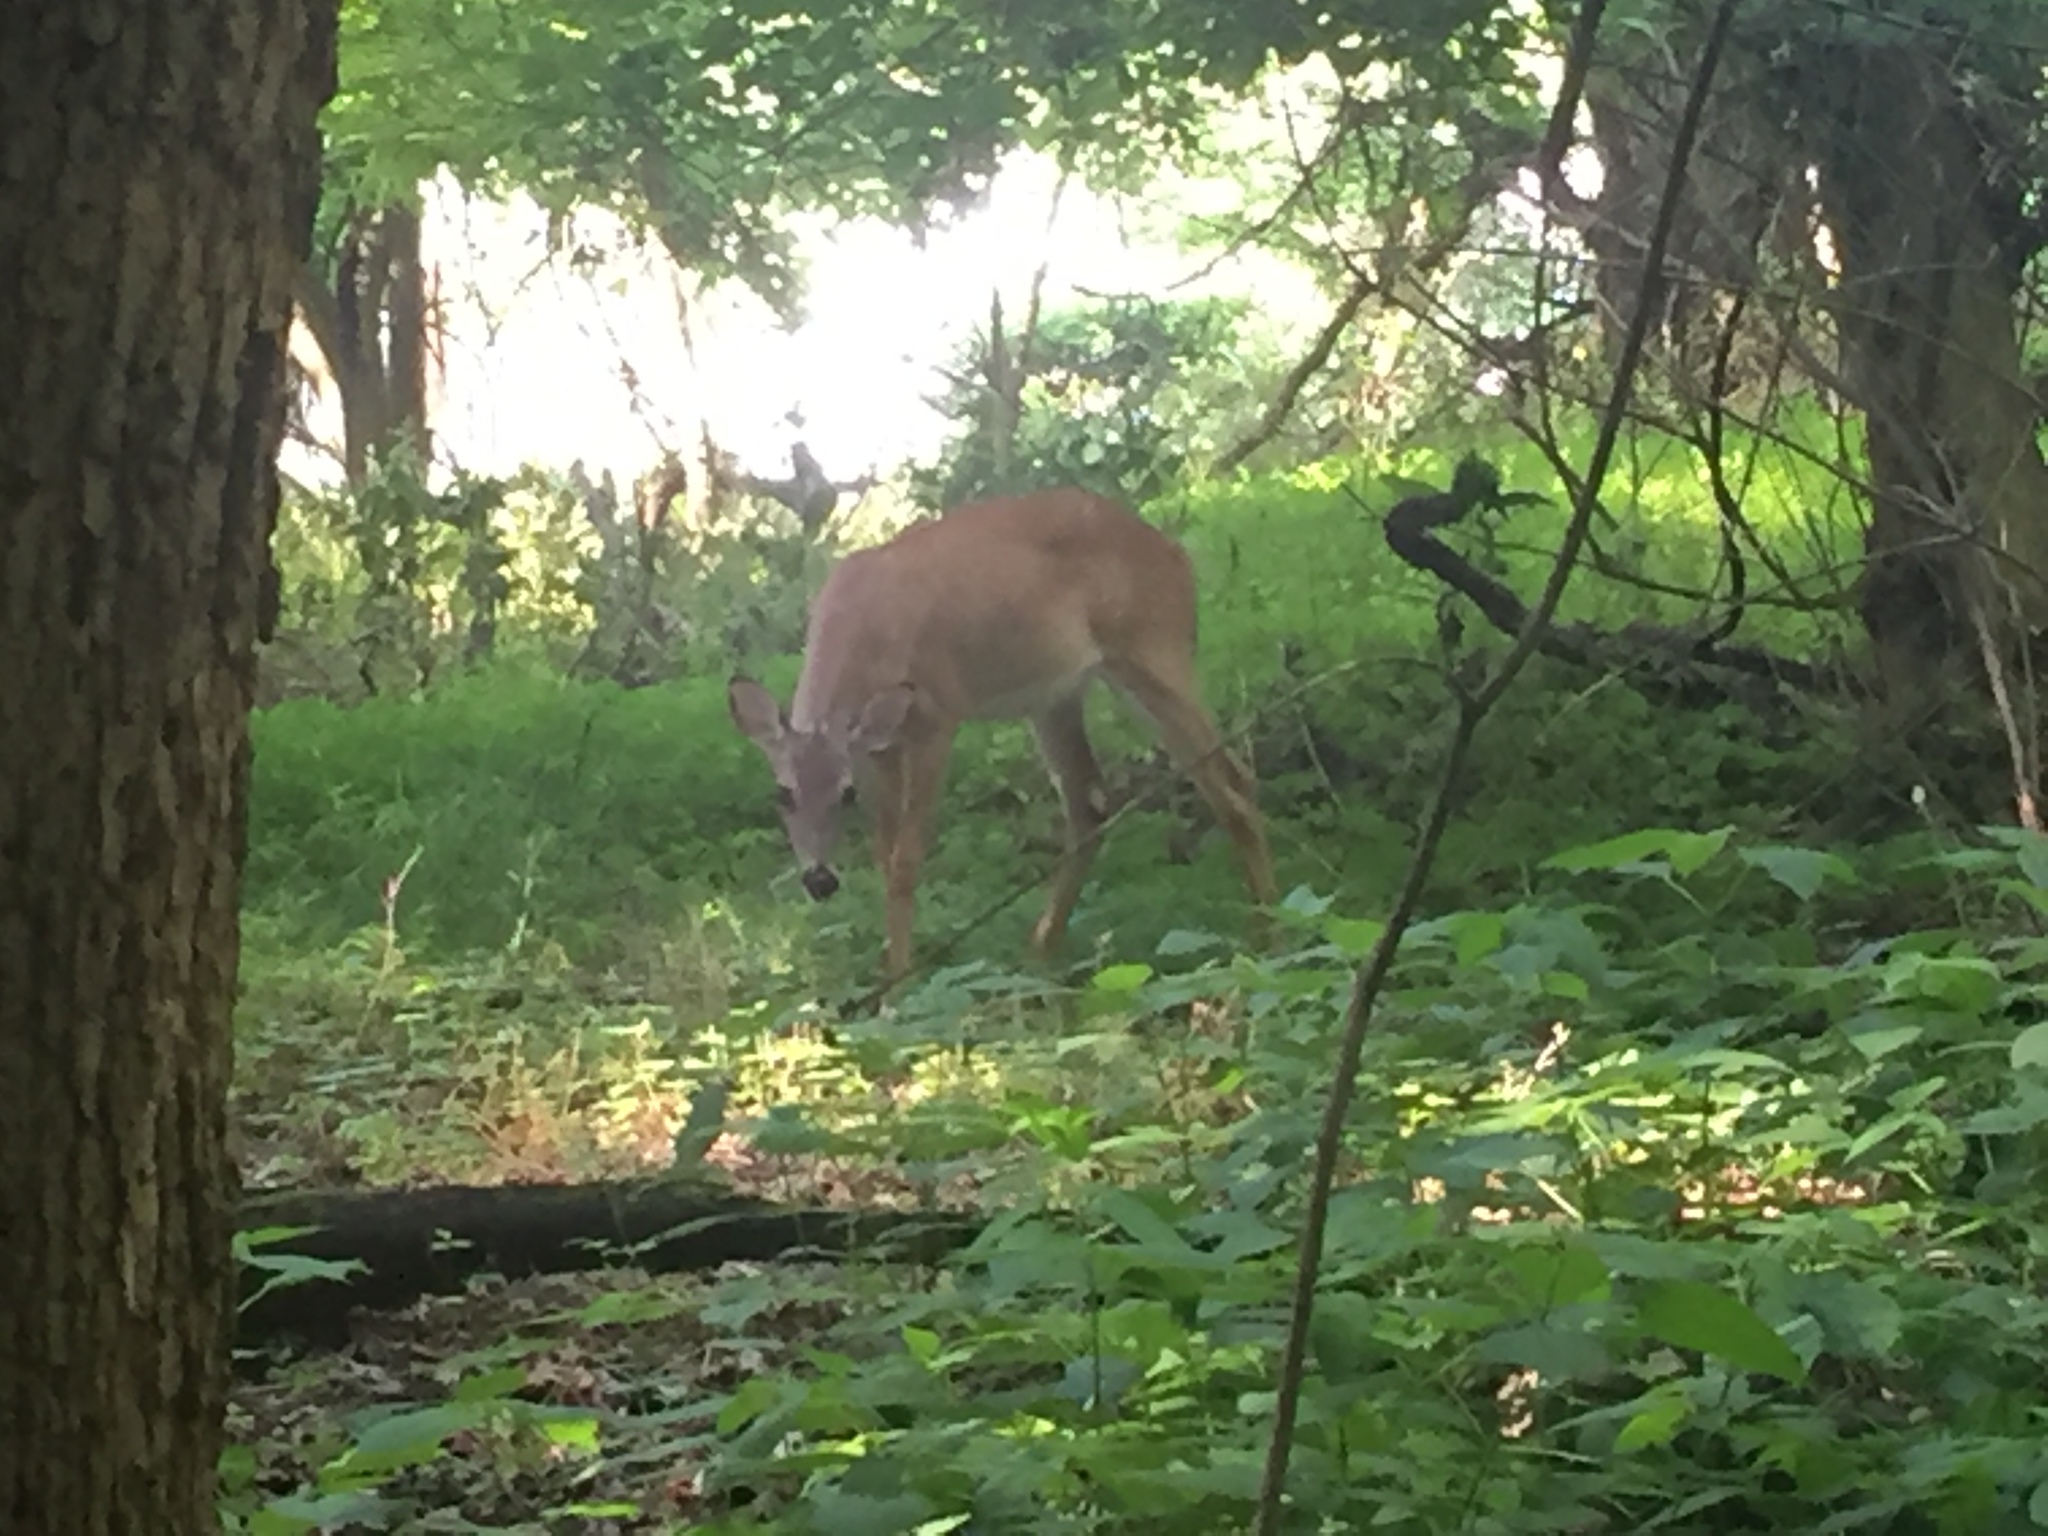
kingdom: Animalia
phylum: Chordata
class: Mammalia
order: Artiodactyla
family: Cervidae
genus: Odocoileus
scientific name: Odocoileus virginianus
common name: White-tailed deer
